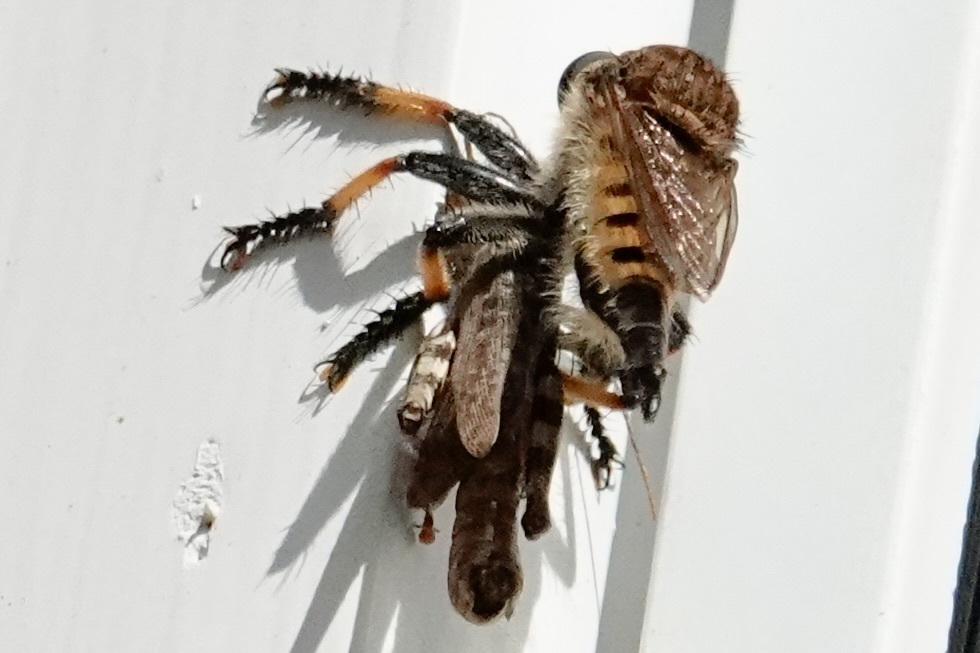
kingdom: Animalia
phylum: Arthropoda
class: Insecta
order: Diptera
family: Asilidae
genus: Promachus
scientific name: Promachus rufipes
